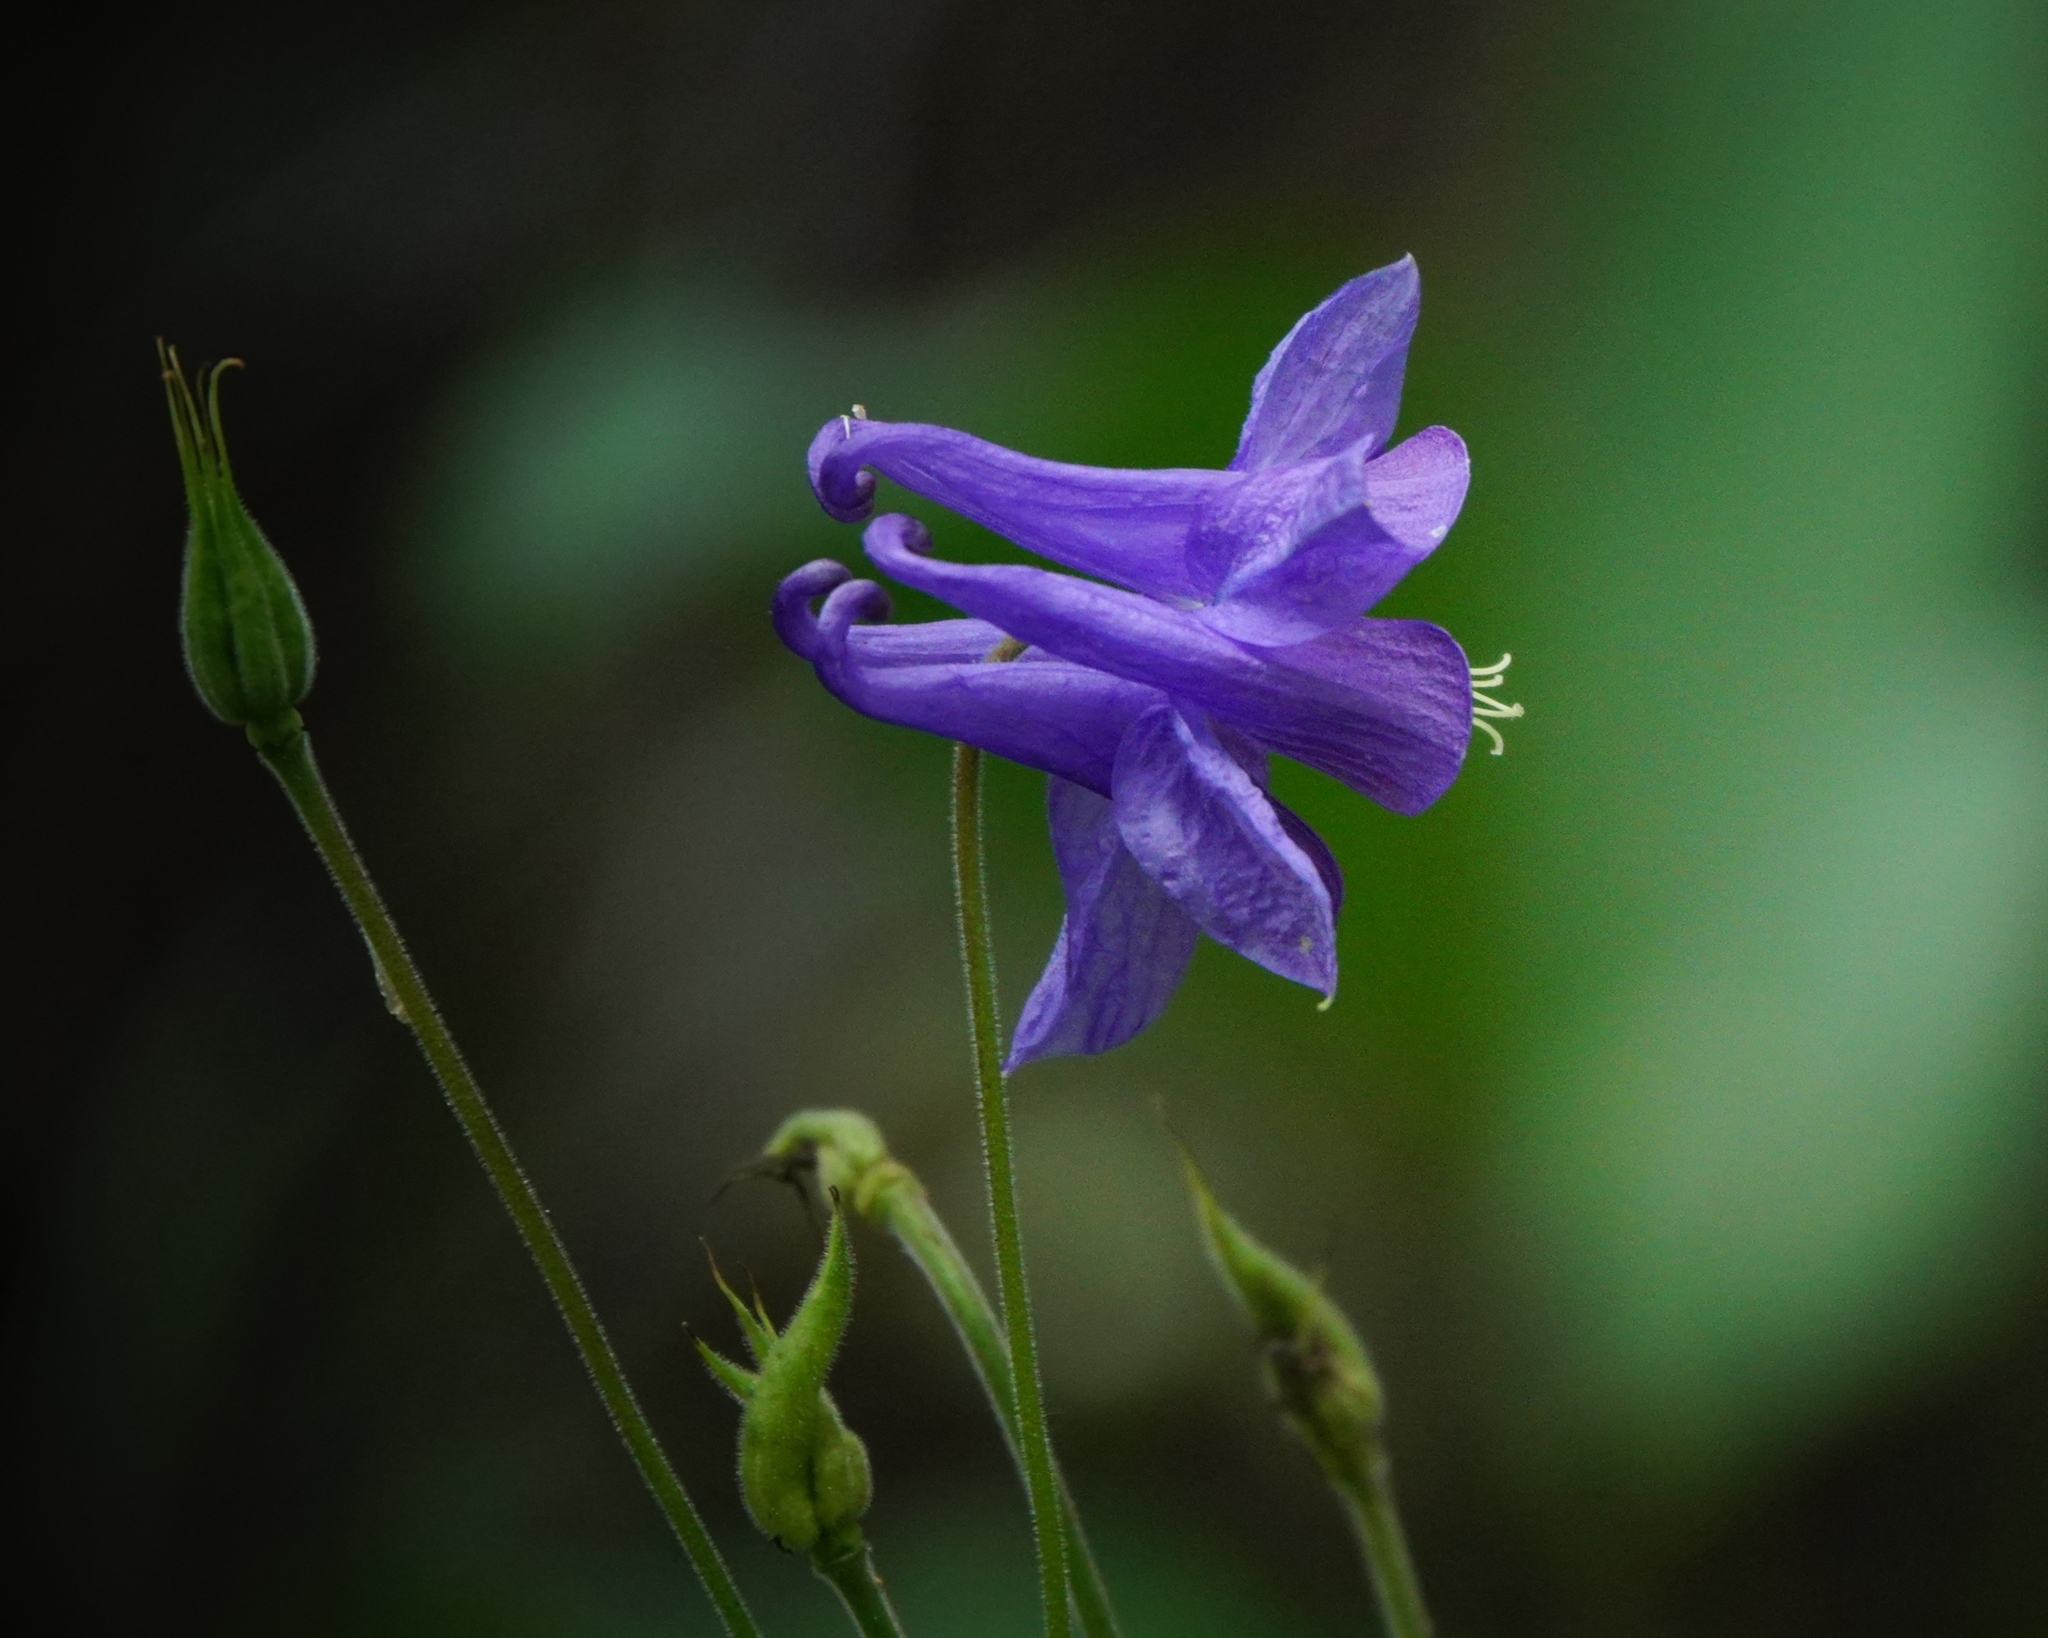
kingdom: Plantae
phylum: Tracheophyta
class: Magnoliopsida
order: Ranunculales
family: Ranunculaceae
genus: Aquilegia
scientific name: Aquilegia vulgaris
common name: Columbine
